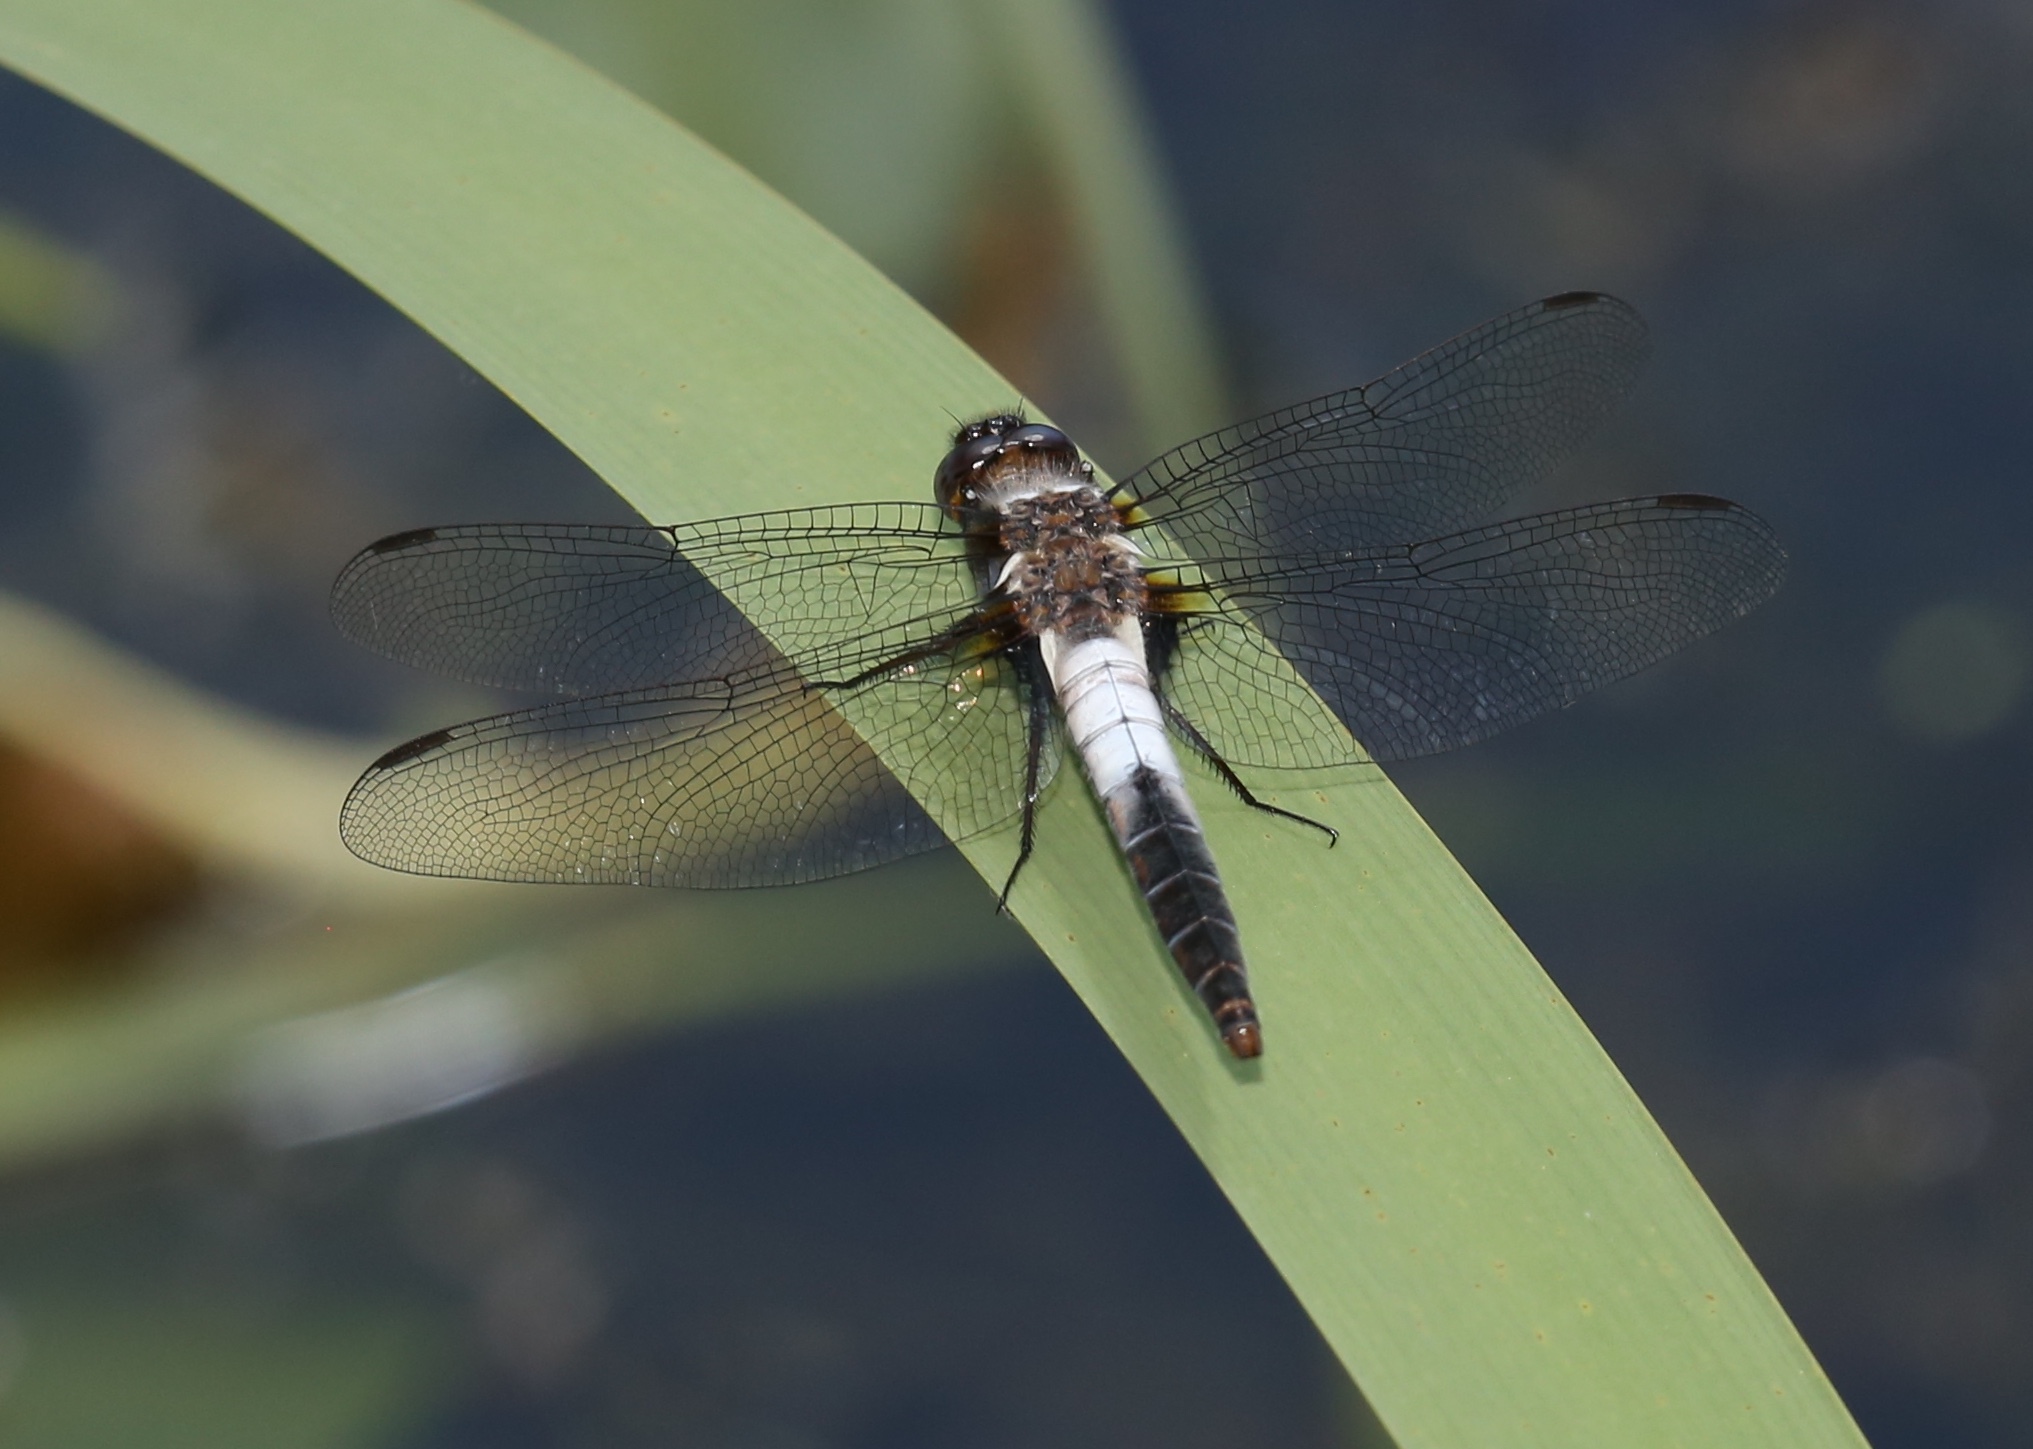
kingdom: Animalia
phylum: Arthropoda
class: Insecta
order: Odonata
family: Libellulidae
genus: Ladona
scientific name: Ladona julia
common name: Chalk-fronted corporal
